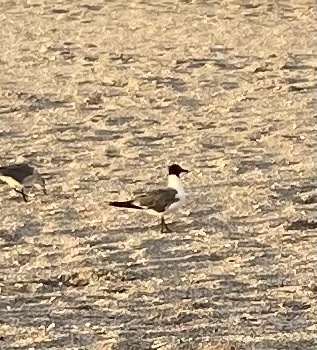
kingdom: Animalia
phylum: Chordata
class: Aves
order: Charadriiformes
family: Laridae
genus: Leucophaeus
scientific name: Leucophaeus atricilla
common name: Laughing gull
